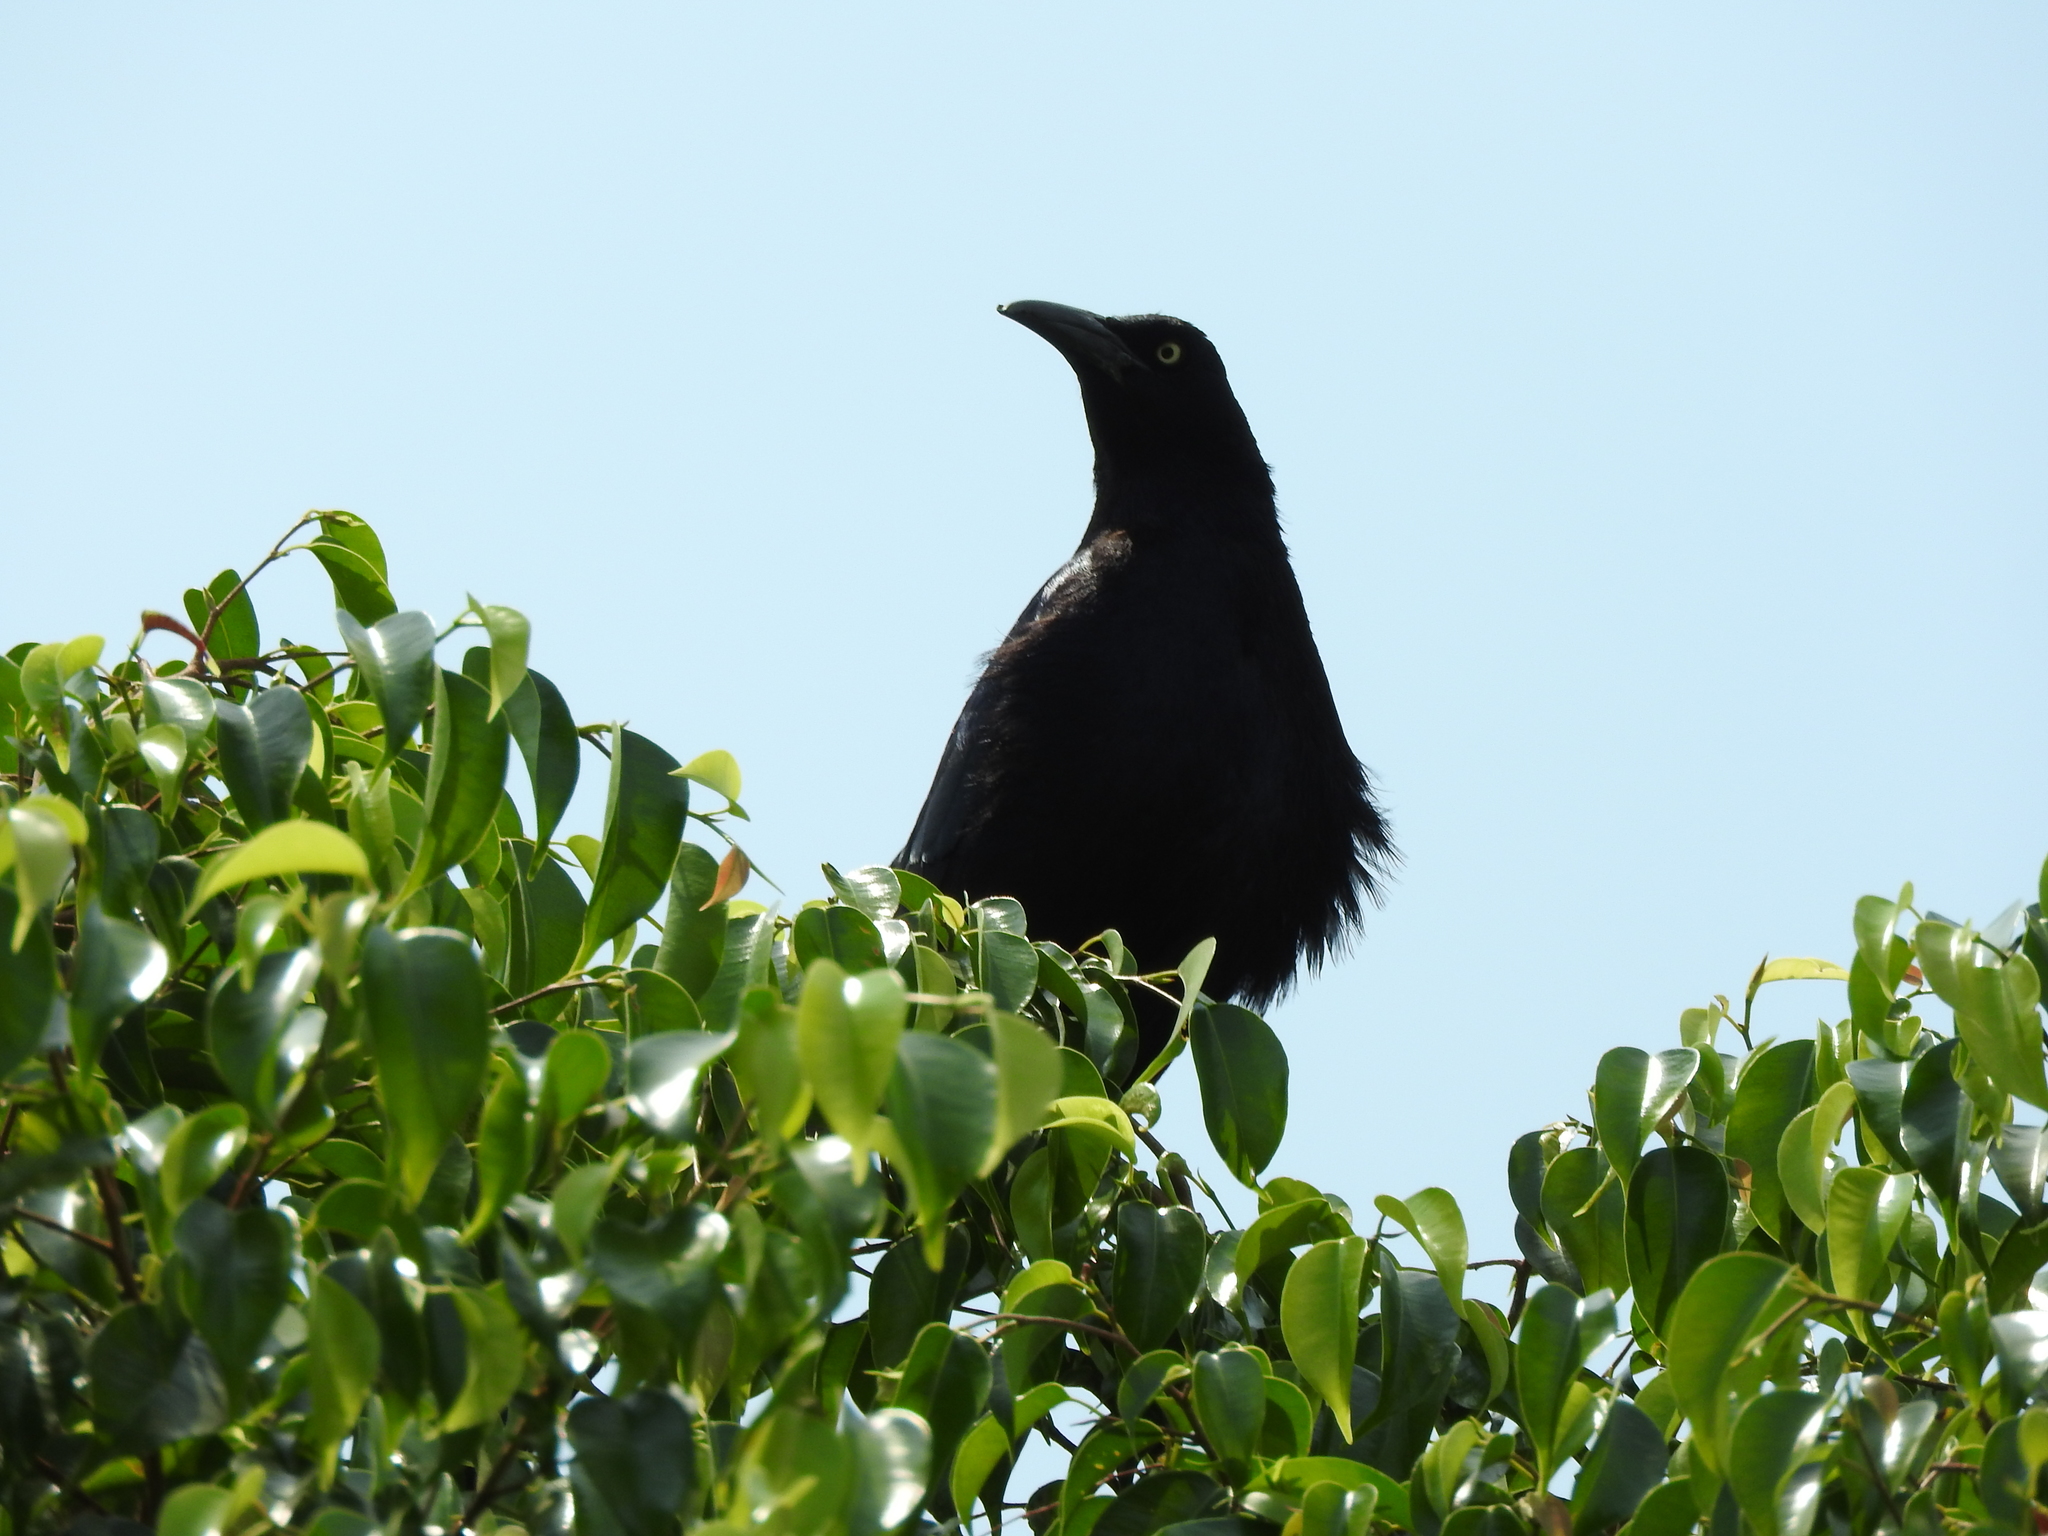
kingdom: Animalia
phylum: Chordata
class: Aves
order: Passeriformes
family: Icteridae
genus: Quiscalus
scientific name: Quiscalus mexicanus
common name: Great-tailed grackle
